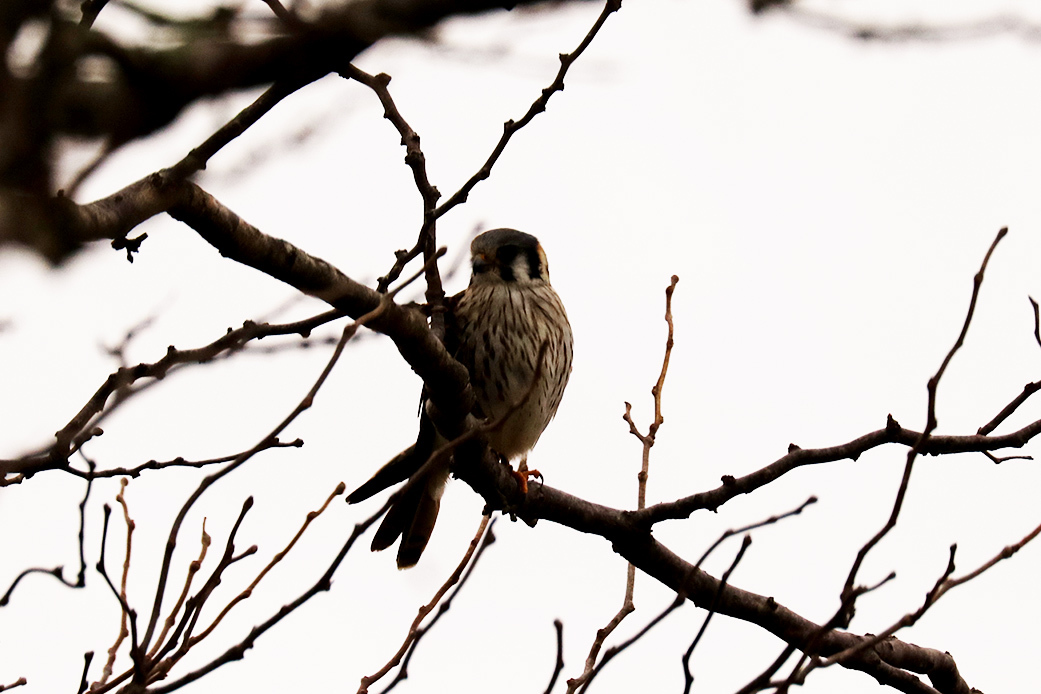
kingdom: Animalia
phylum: Chordata
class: Aves
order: Falconiformes
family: Falconidae
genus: Falco
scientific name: Falco sparverius
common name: American kestrel
